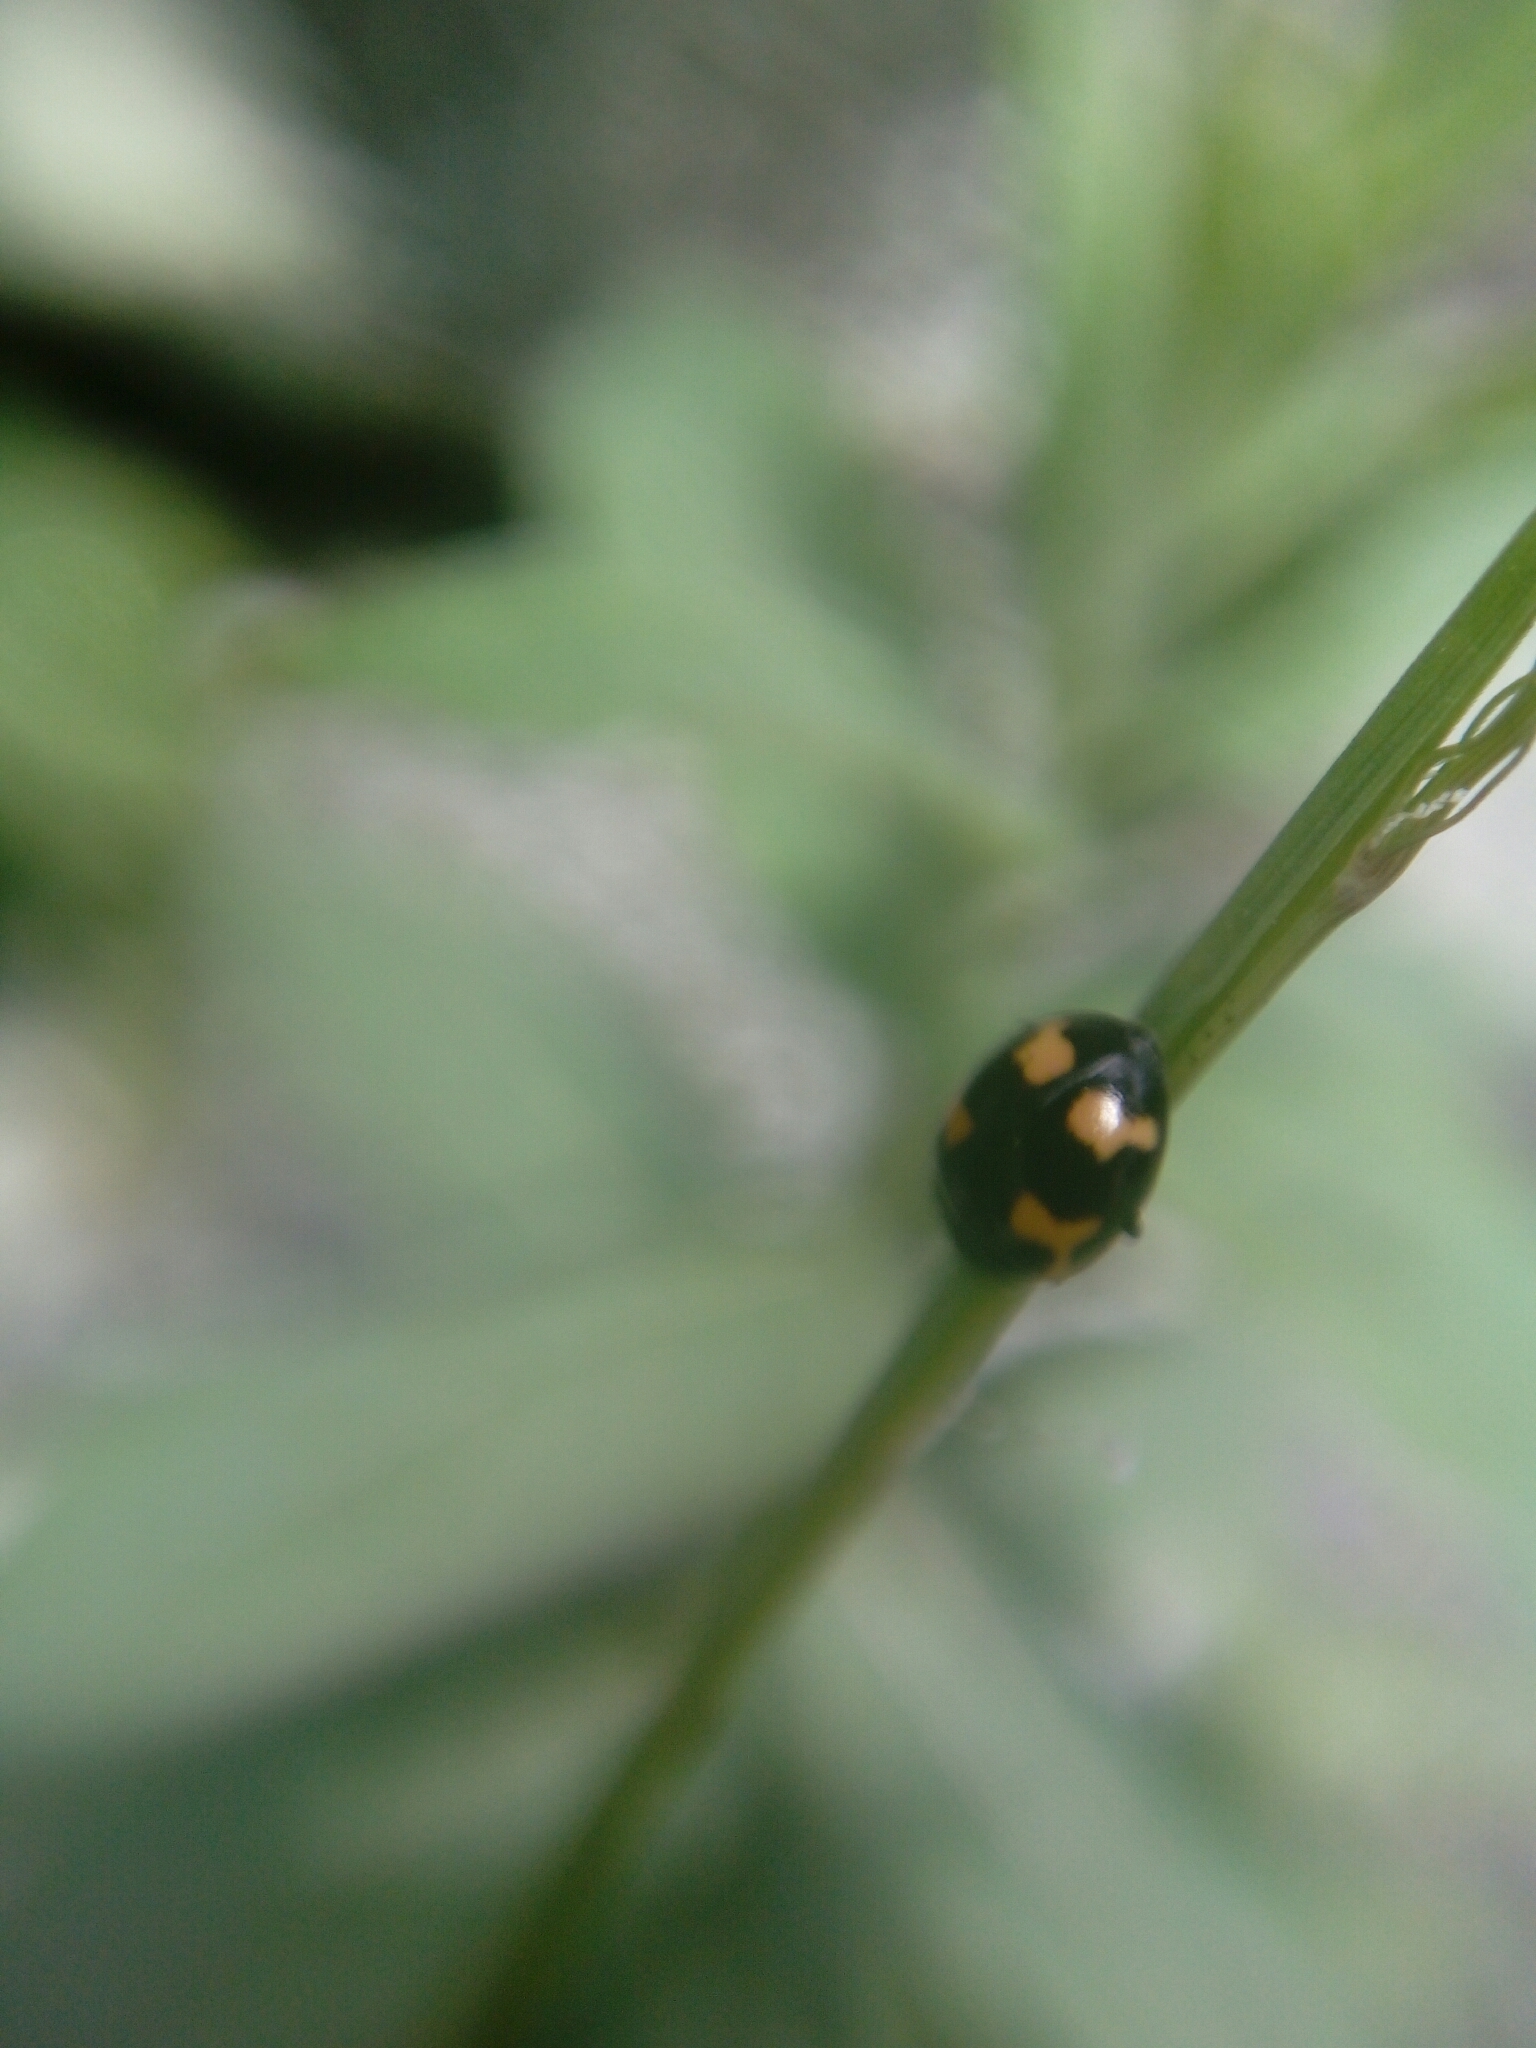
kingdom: Animalia
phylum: Arthropoda
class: Insecta
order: Coleoptera
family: Coccinellidae
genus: Ceratomegilla
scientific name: Ceratomegilla alpina
